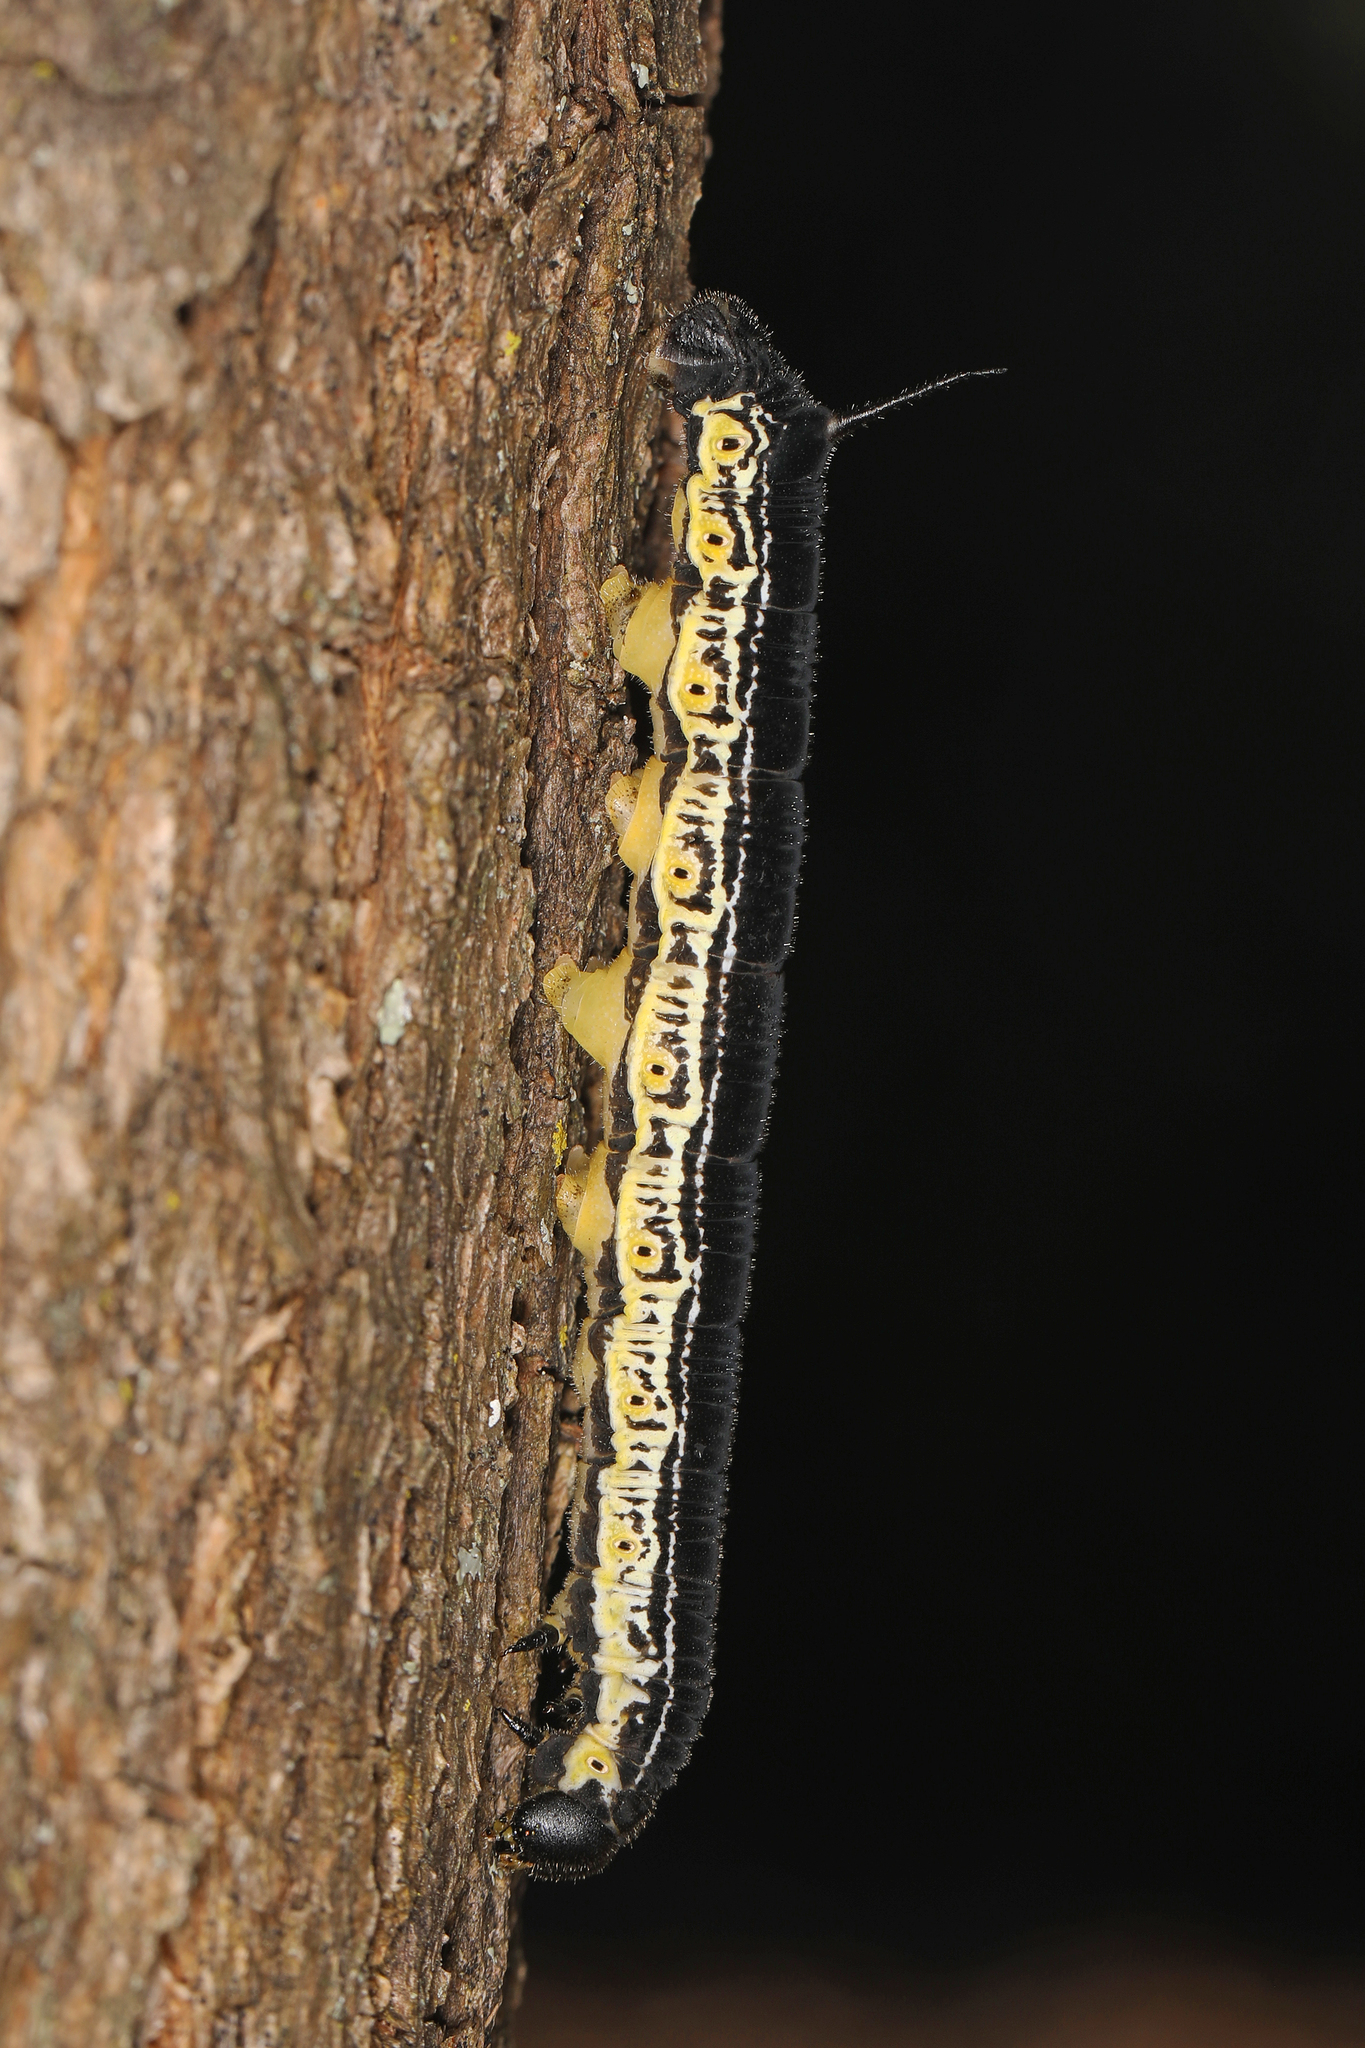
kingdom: Animalia
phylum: Arthropoda
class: Insecta
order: Lepidoptera
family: Sphingidae
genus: Ceratomia
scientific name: Ceratomia catalpae
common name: Catalpa hornworm
